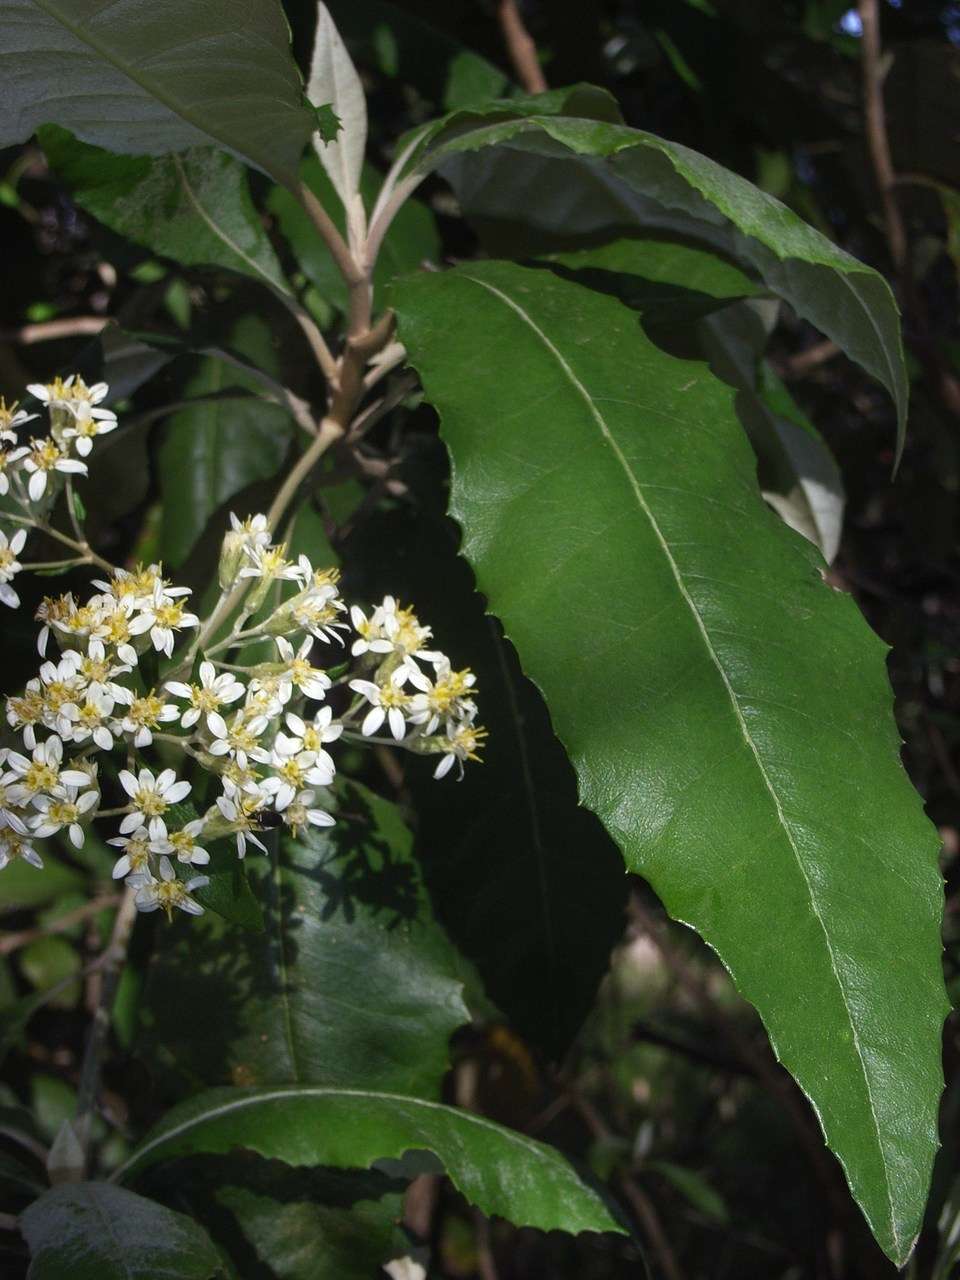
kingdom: Plantae
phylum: Tracheophyta
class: Magnoliopsida
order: Asterales
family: Asteraceae
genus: Olearia
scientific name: Olearia argophylla
